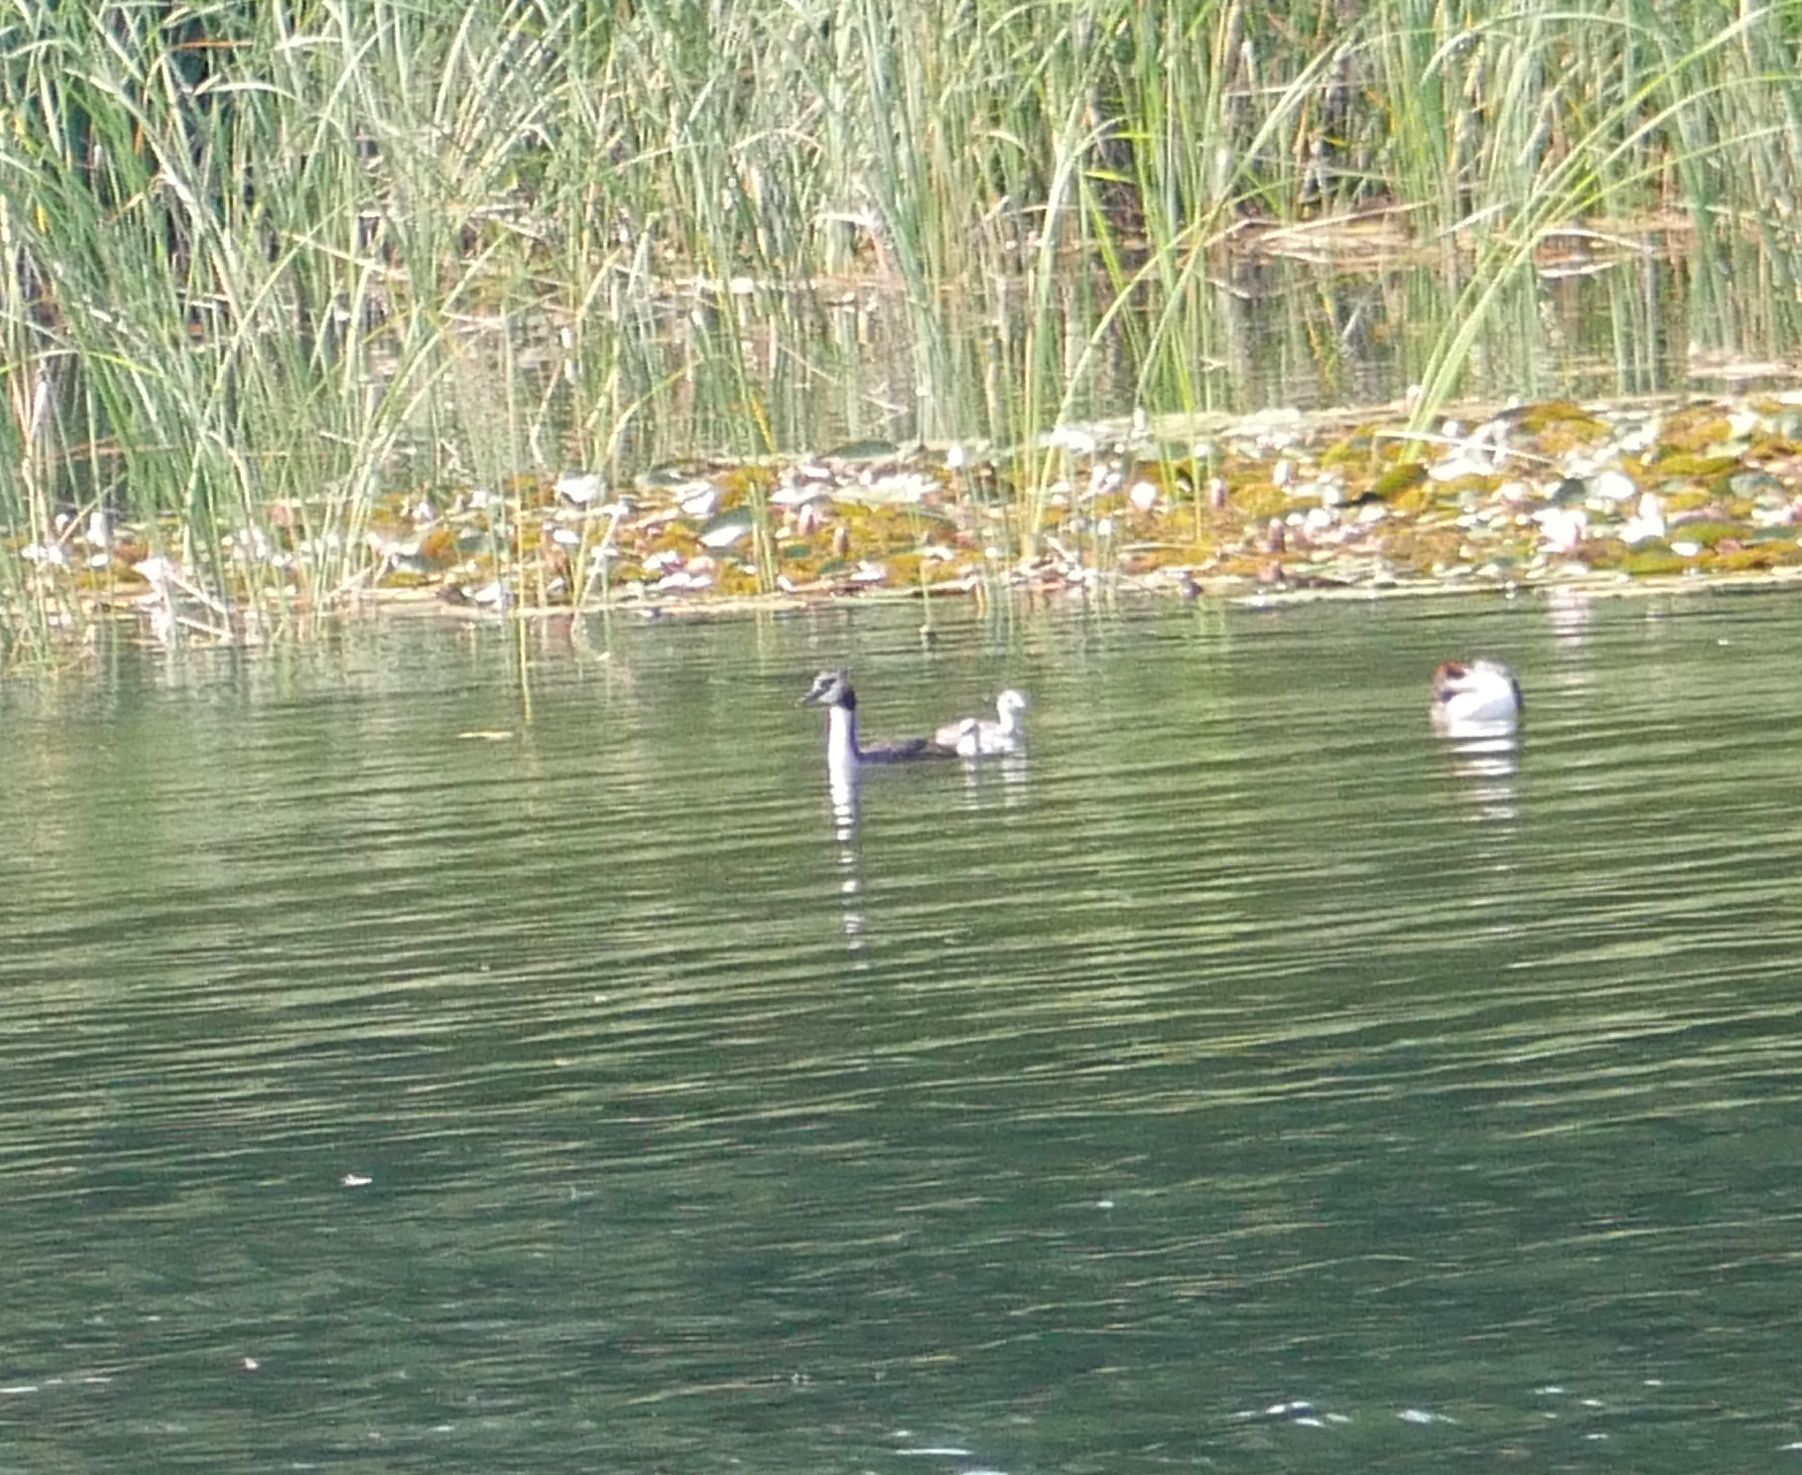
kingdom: Animalia
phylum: Chordata
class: Aves
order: Podicipediformes
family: Podicipedidae
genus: Podiceps
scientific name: Podiceps cristatus
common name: Great crested grebe
